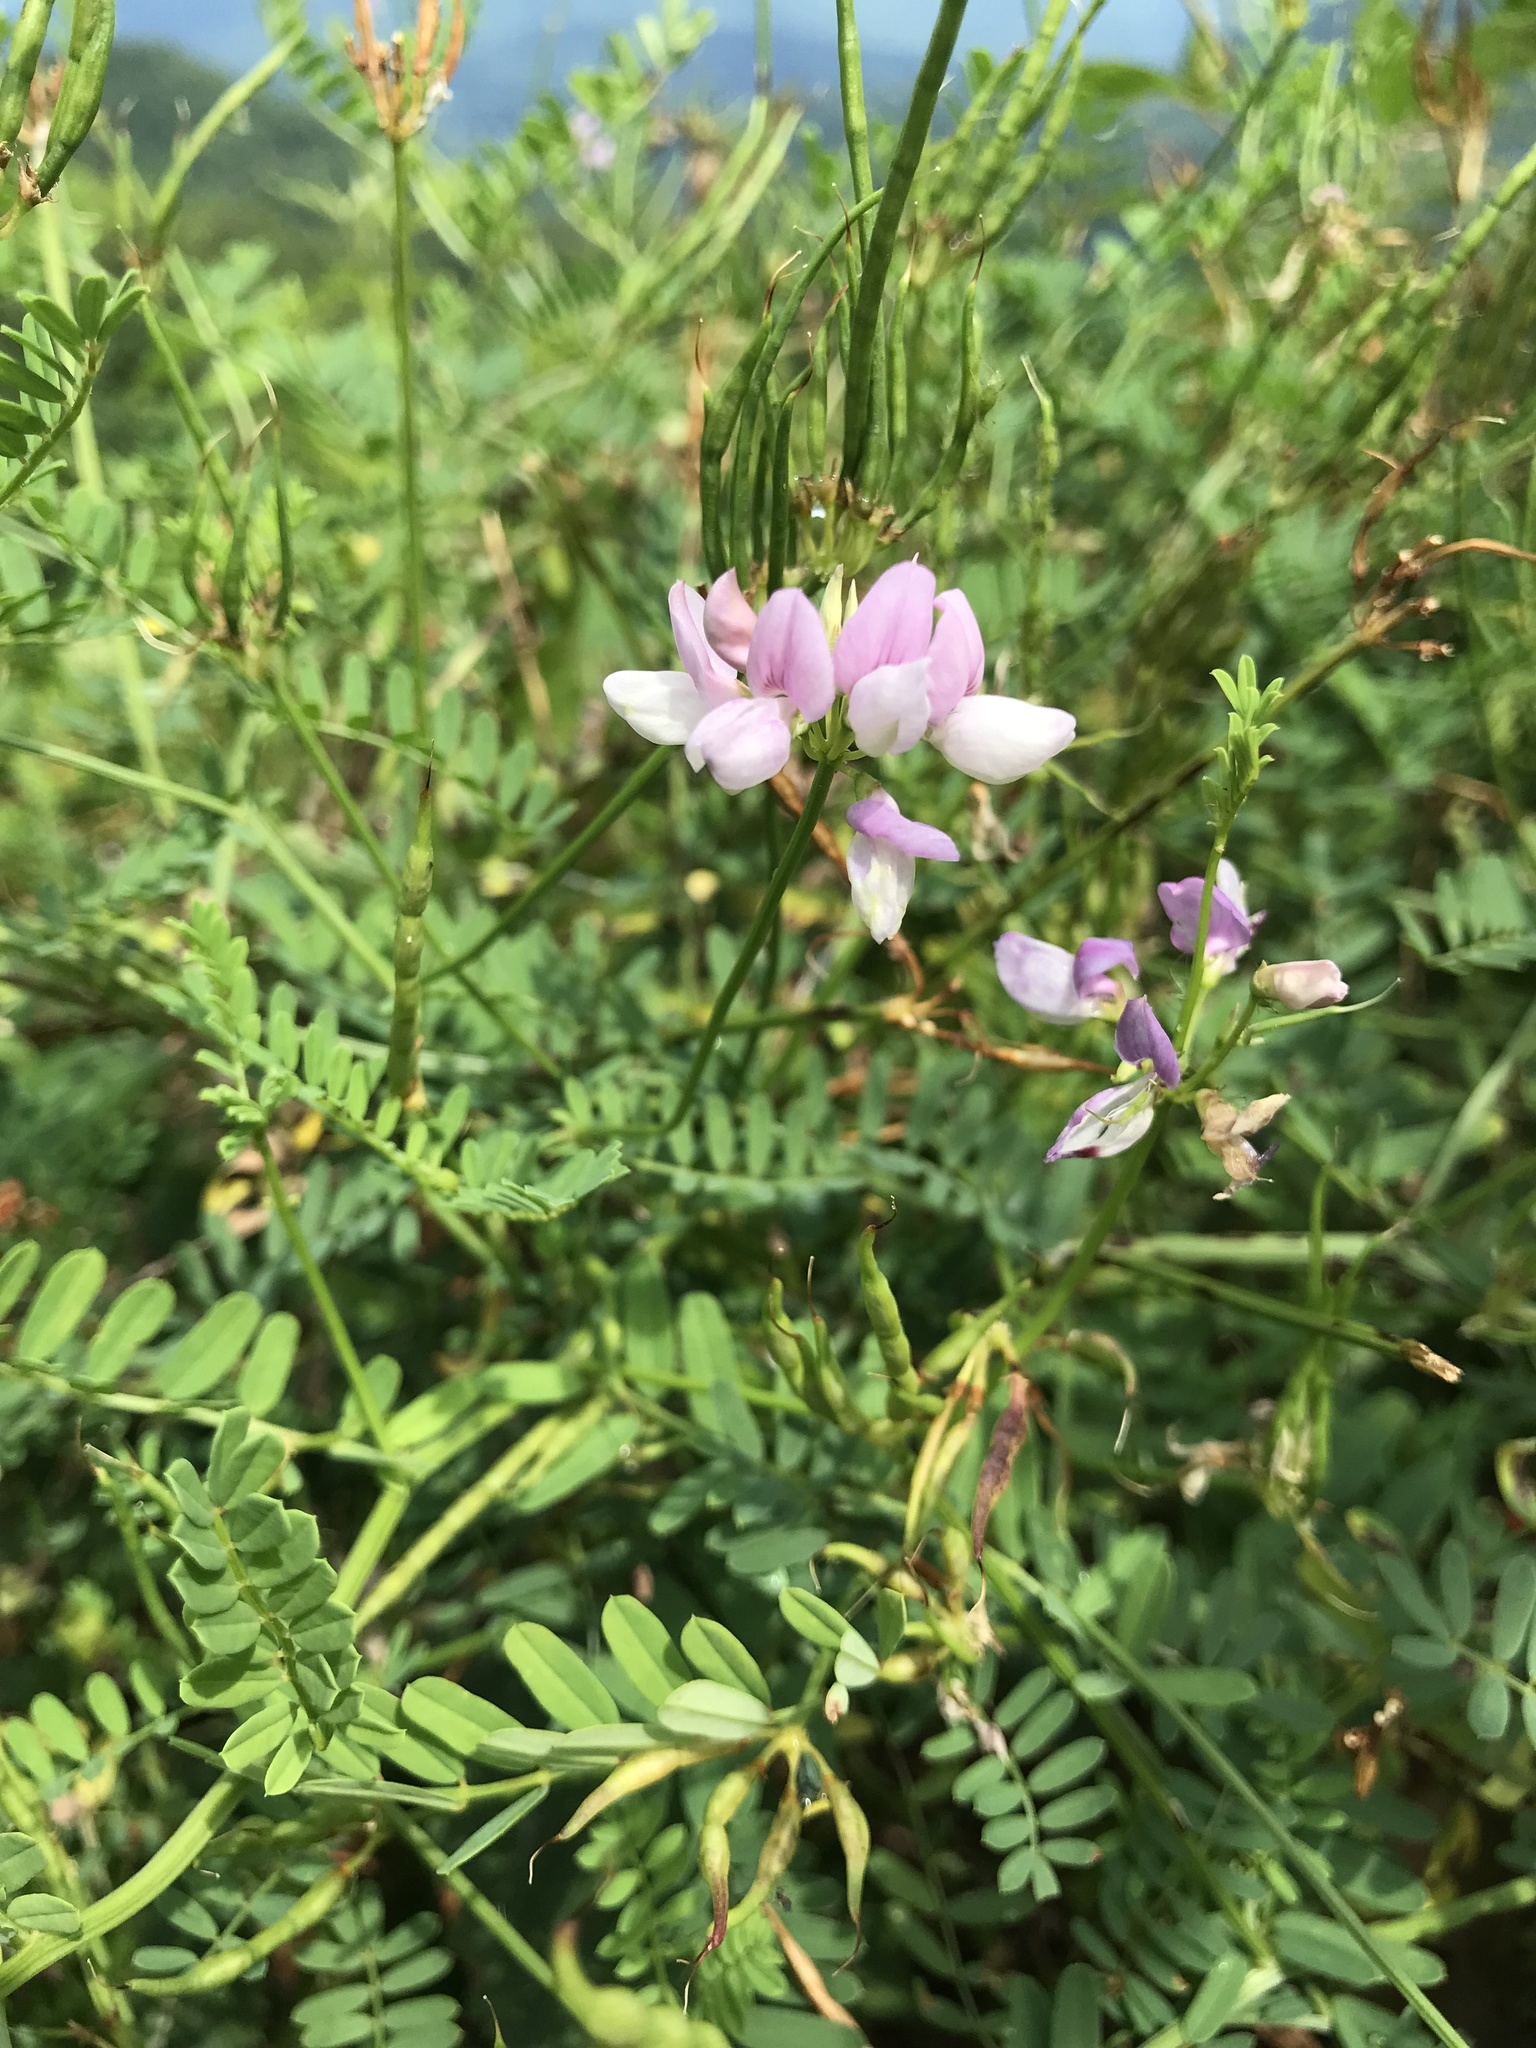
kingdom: Plantae
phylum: Tracheophyta
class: Magnoliopsida
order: Fabales
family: Fabaceae
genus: Coronilla
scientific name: Coronilla varia
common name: Crownvetch
